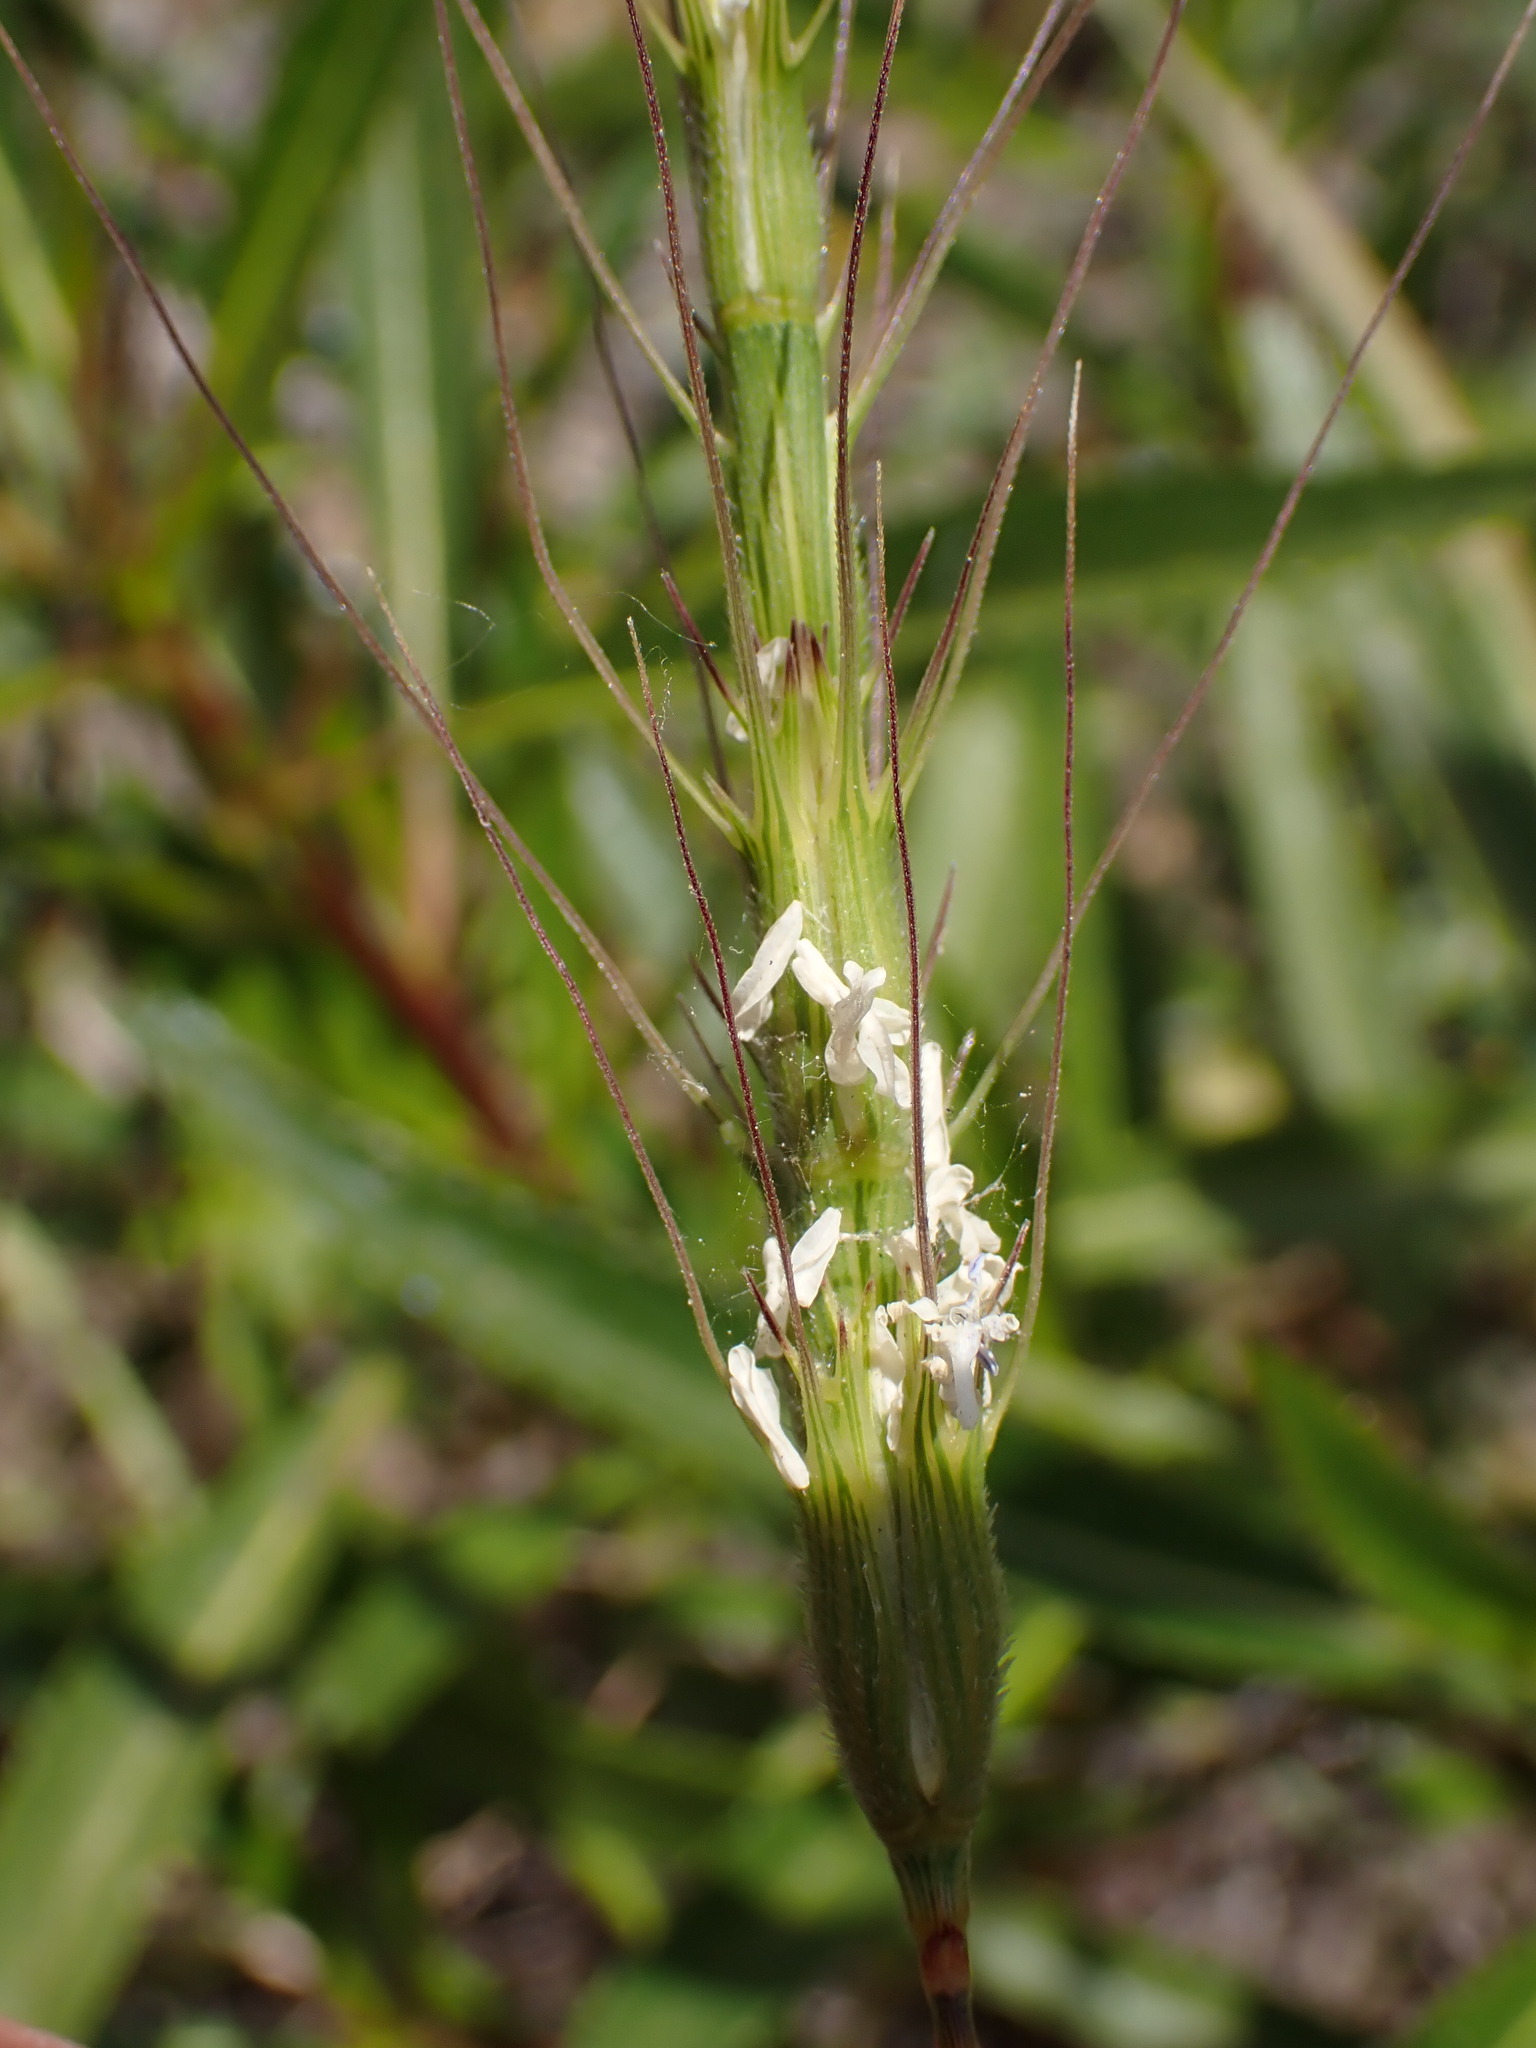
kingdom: Plantae
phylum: Tracheophyta
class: Liliopsida
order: Poales
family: Poaceae
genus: Aegilops
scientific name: Aegilops triuncialis
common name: Barb goat grass
